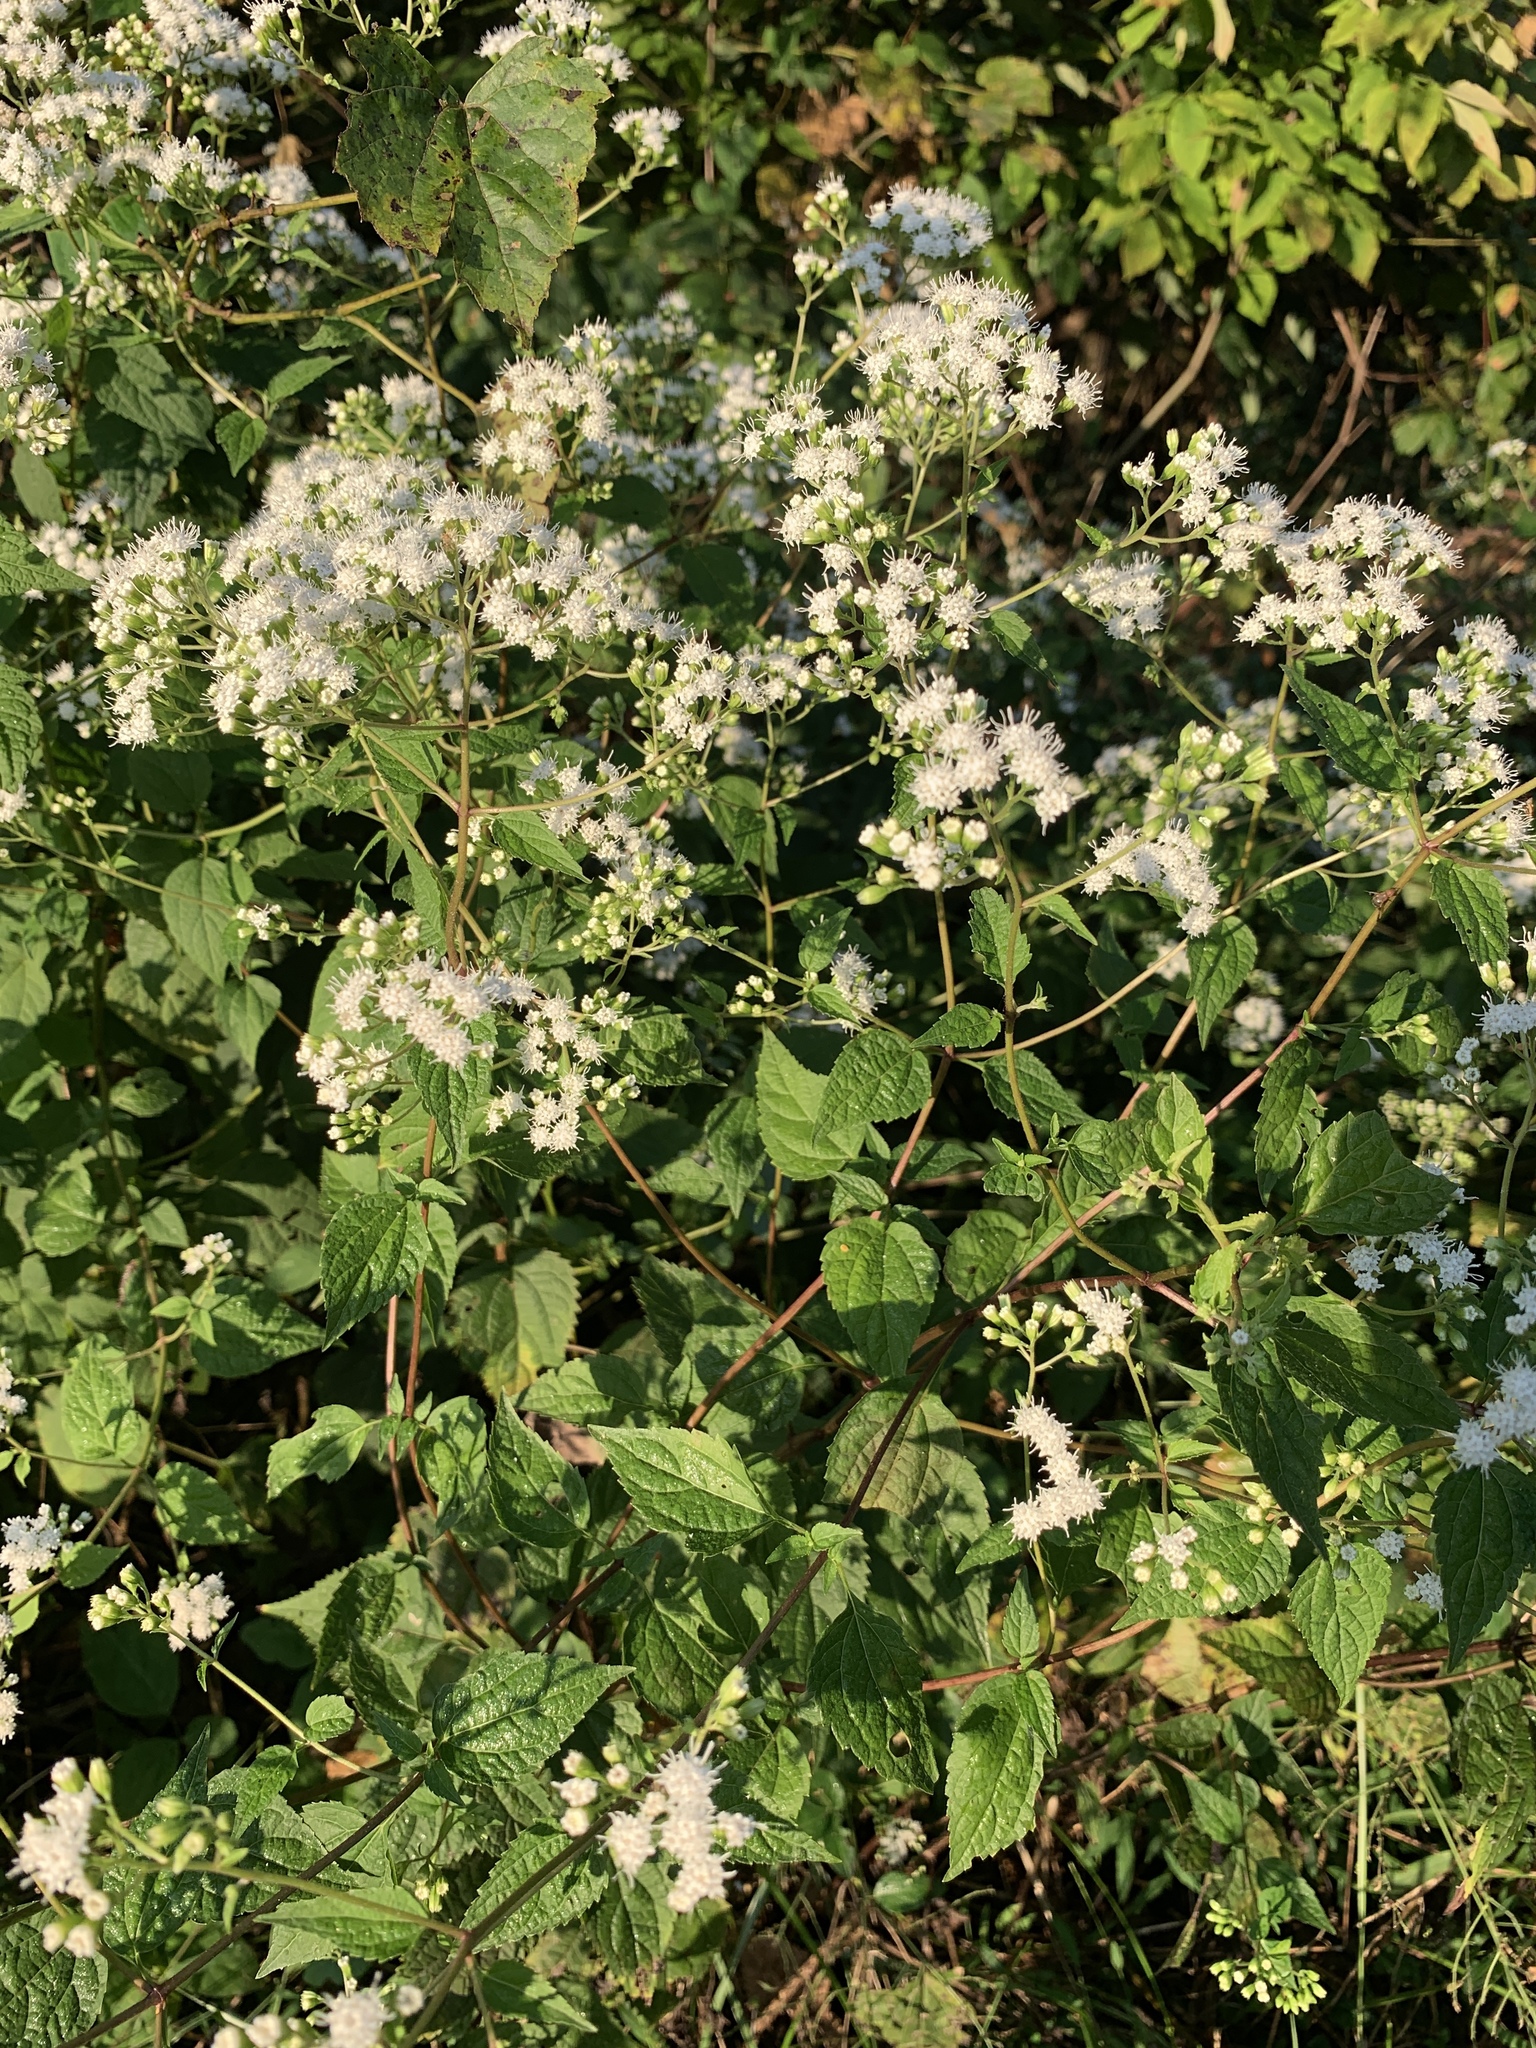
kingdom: Plantae
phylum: Tracheophyta
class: Magnoliopsida
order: Asterales
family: Asteraceae
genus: Ageratina
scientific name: Ageratina altissima
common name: White snakeroot
